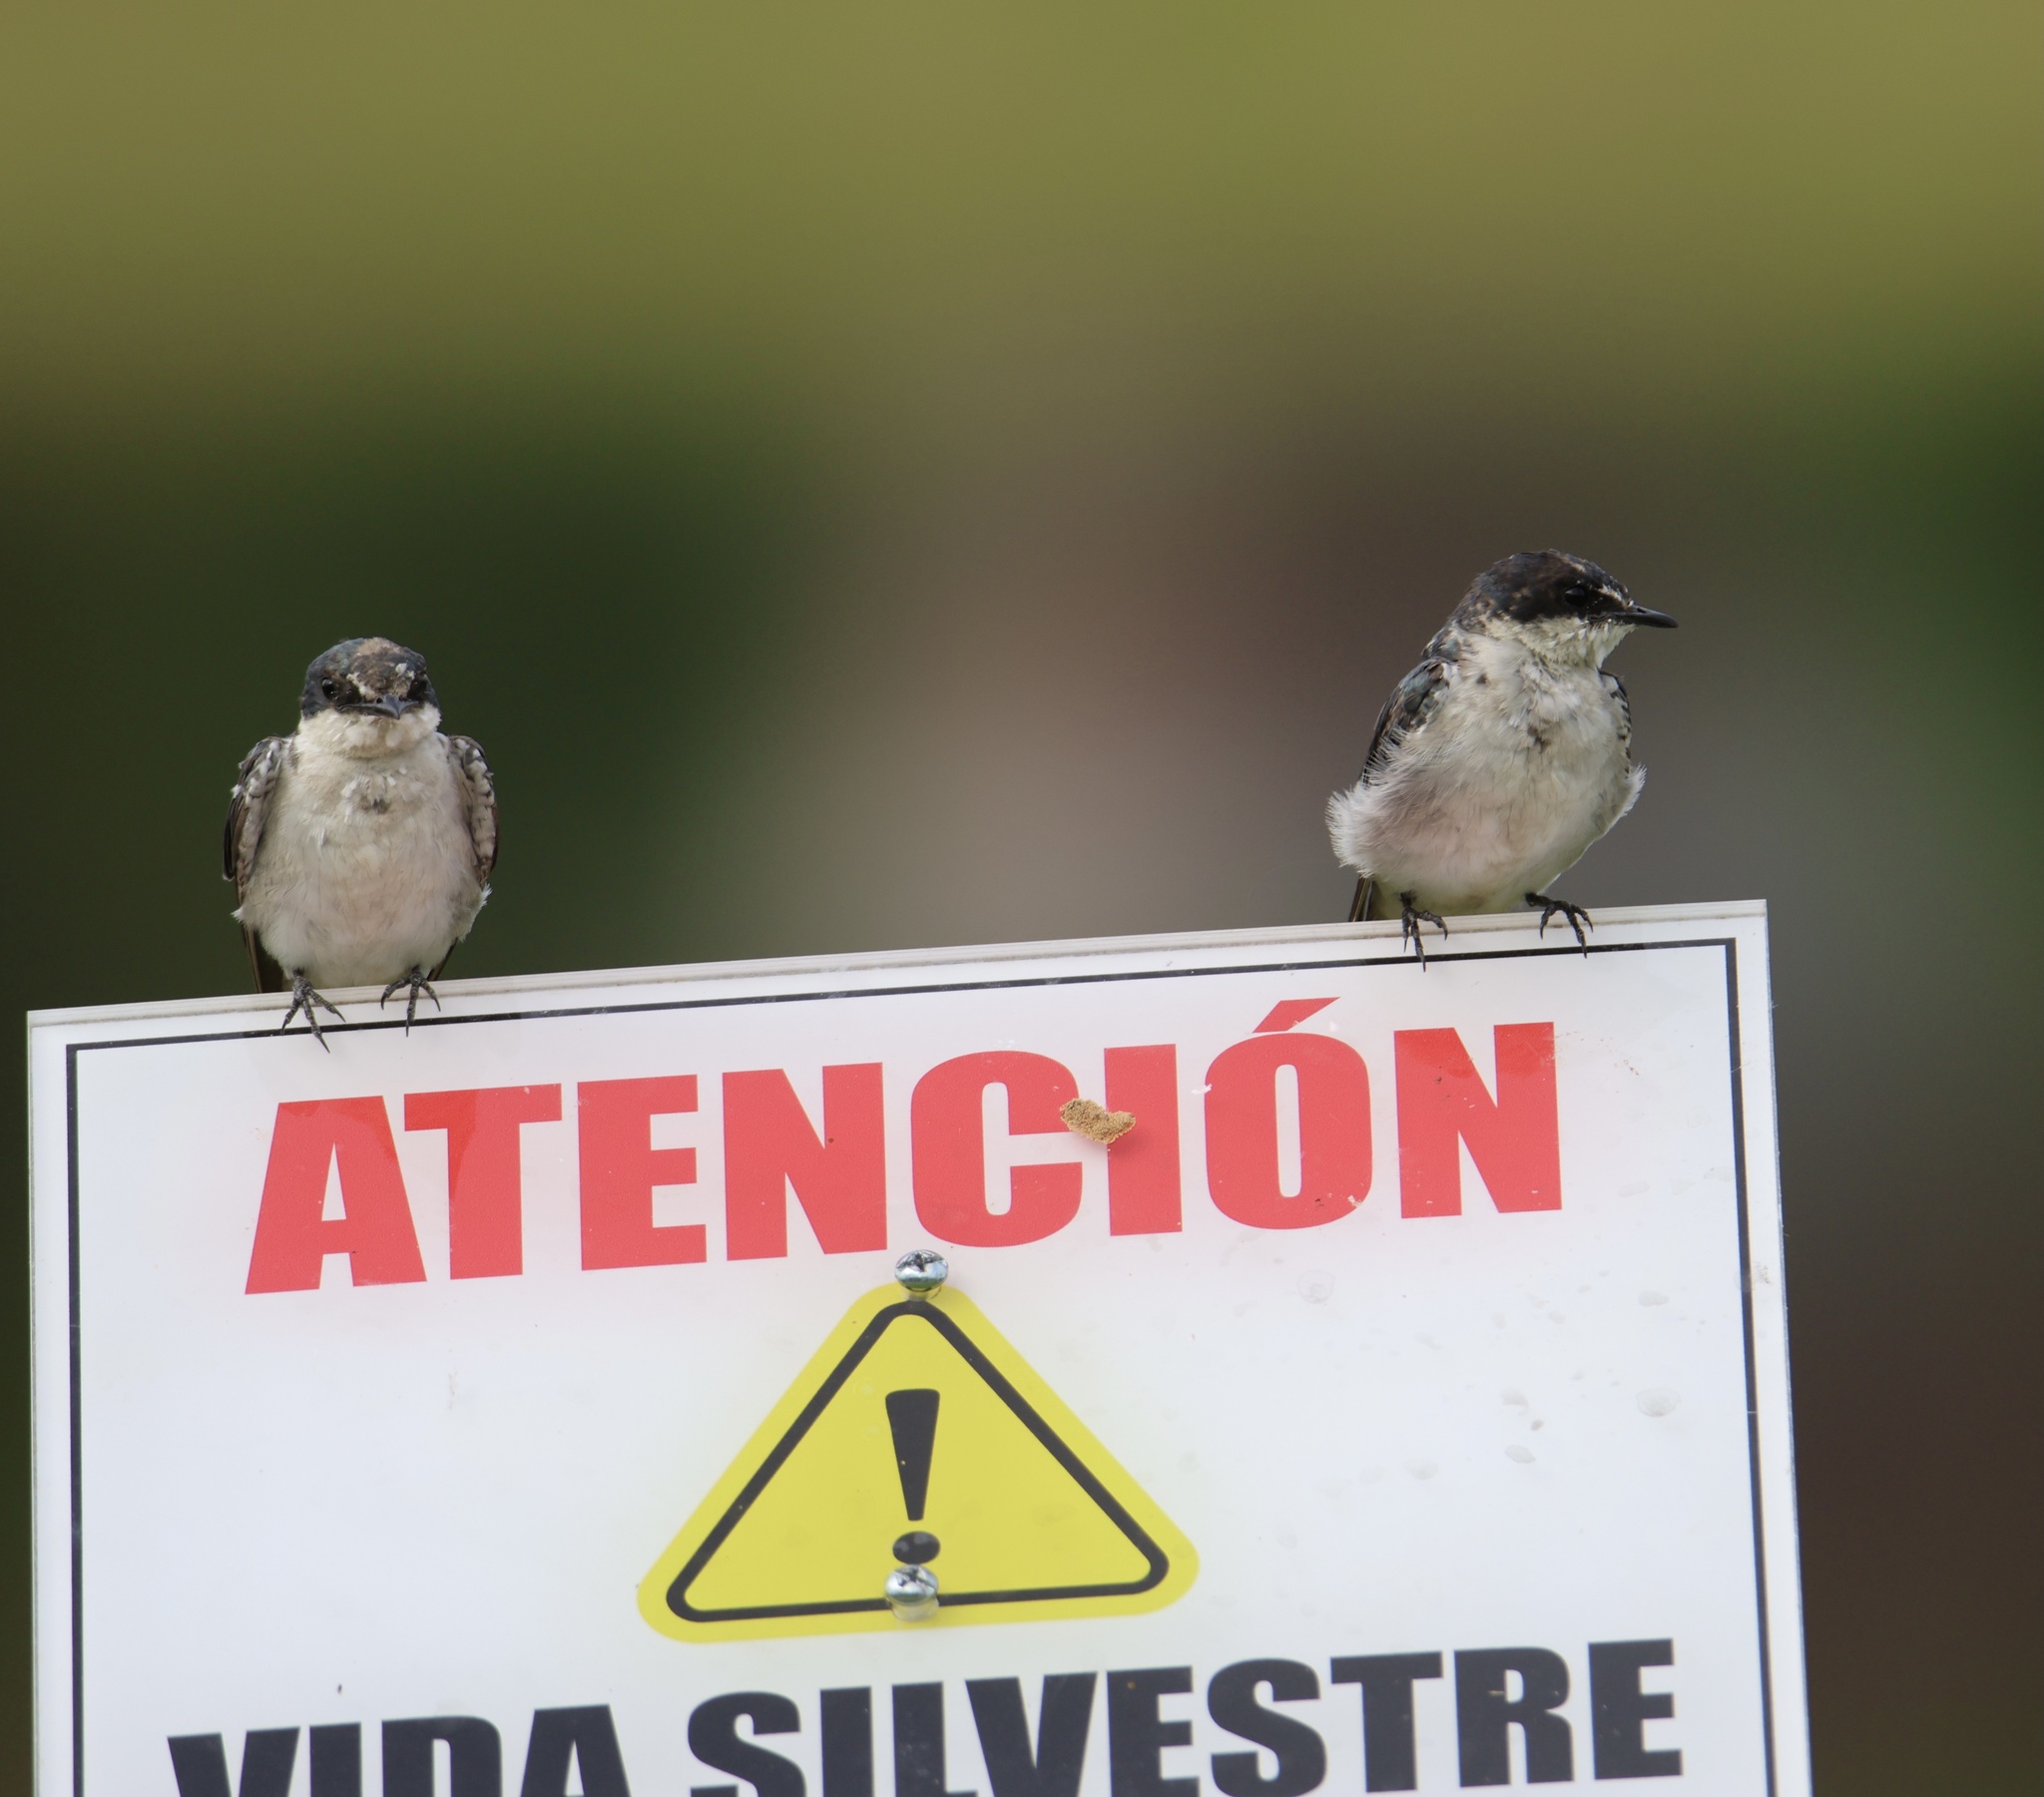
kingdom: Animalia
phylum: Chordata
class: Aves
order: Passeriformes
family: Hirundinidae
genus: Tachycineta
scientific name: Tachycineta albilinea
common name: Mangrove swallow
